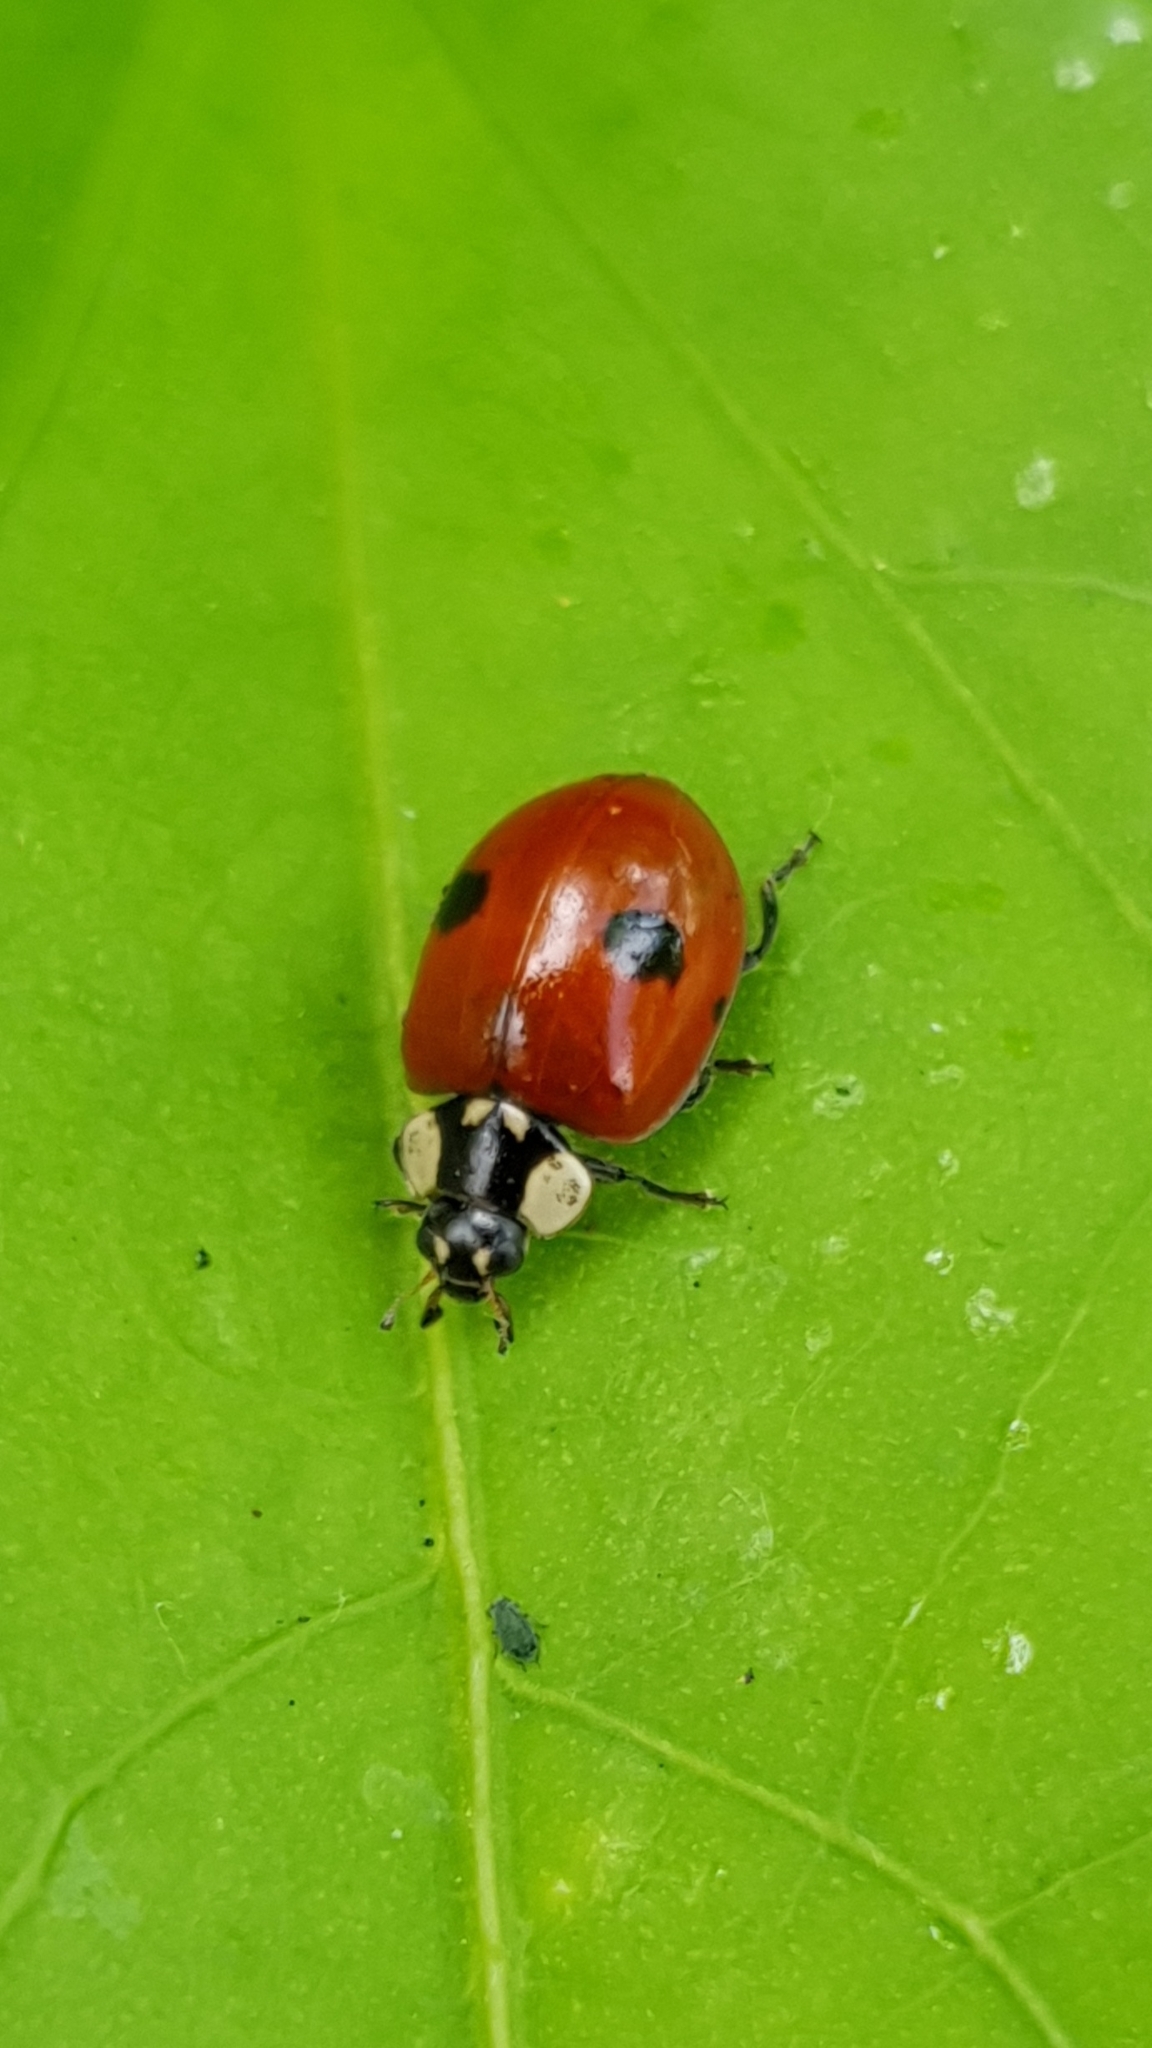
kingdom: Animalia
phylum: Arthropoda
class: Insecta
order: Coleoptera
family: Coccinellidae
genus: Adalia
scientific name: Adalia bipunctata
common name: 2-spot ladybird
